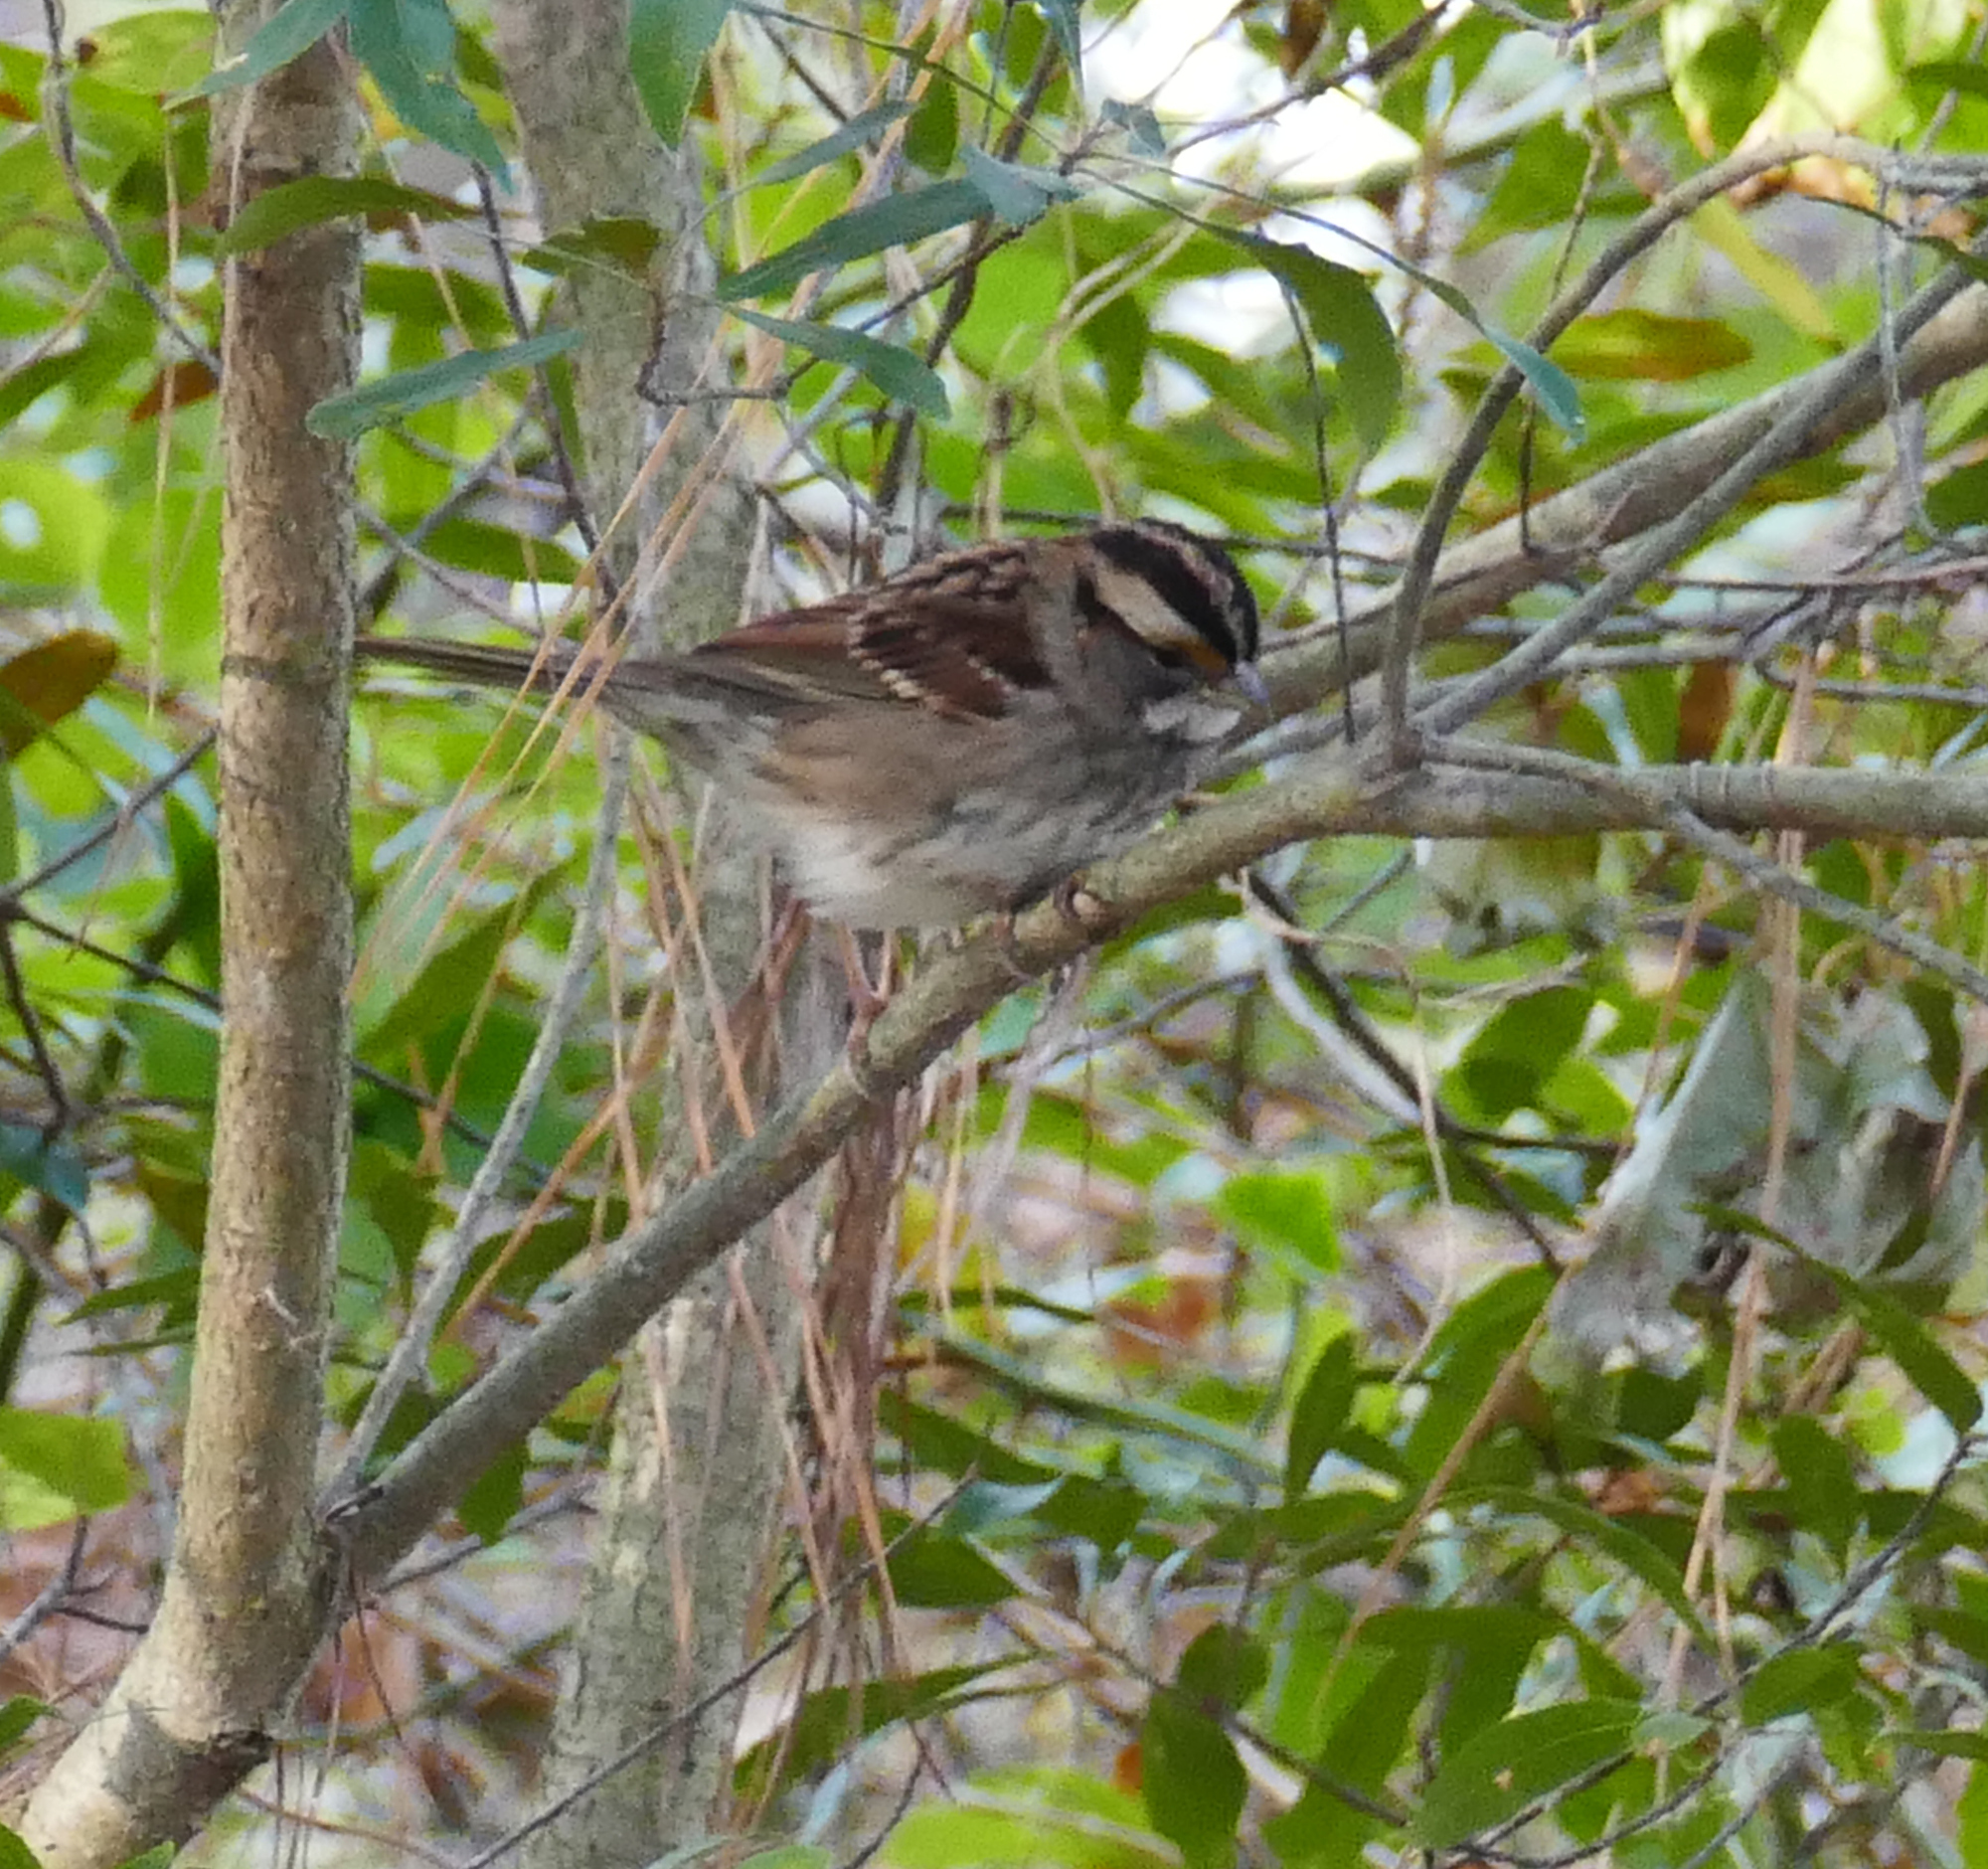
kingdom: Animalia
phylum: Chordata
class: Aves
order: Passeriformes
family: Passerellidae
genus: Zonotrichia
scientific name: Zonotrichia albicollis
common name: White-throated sparrow
